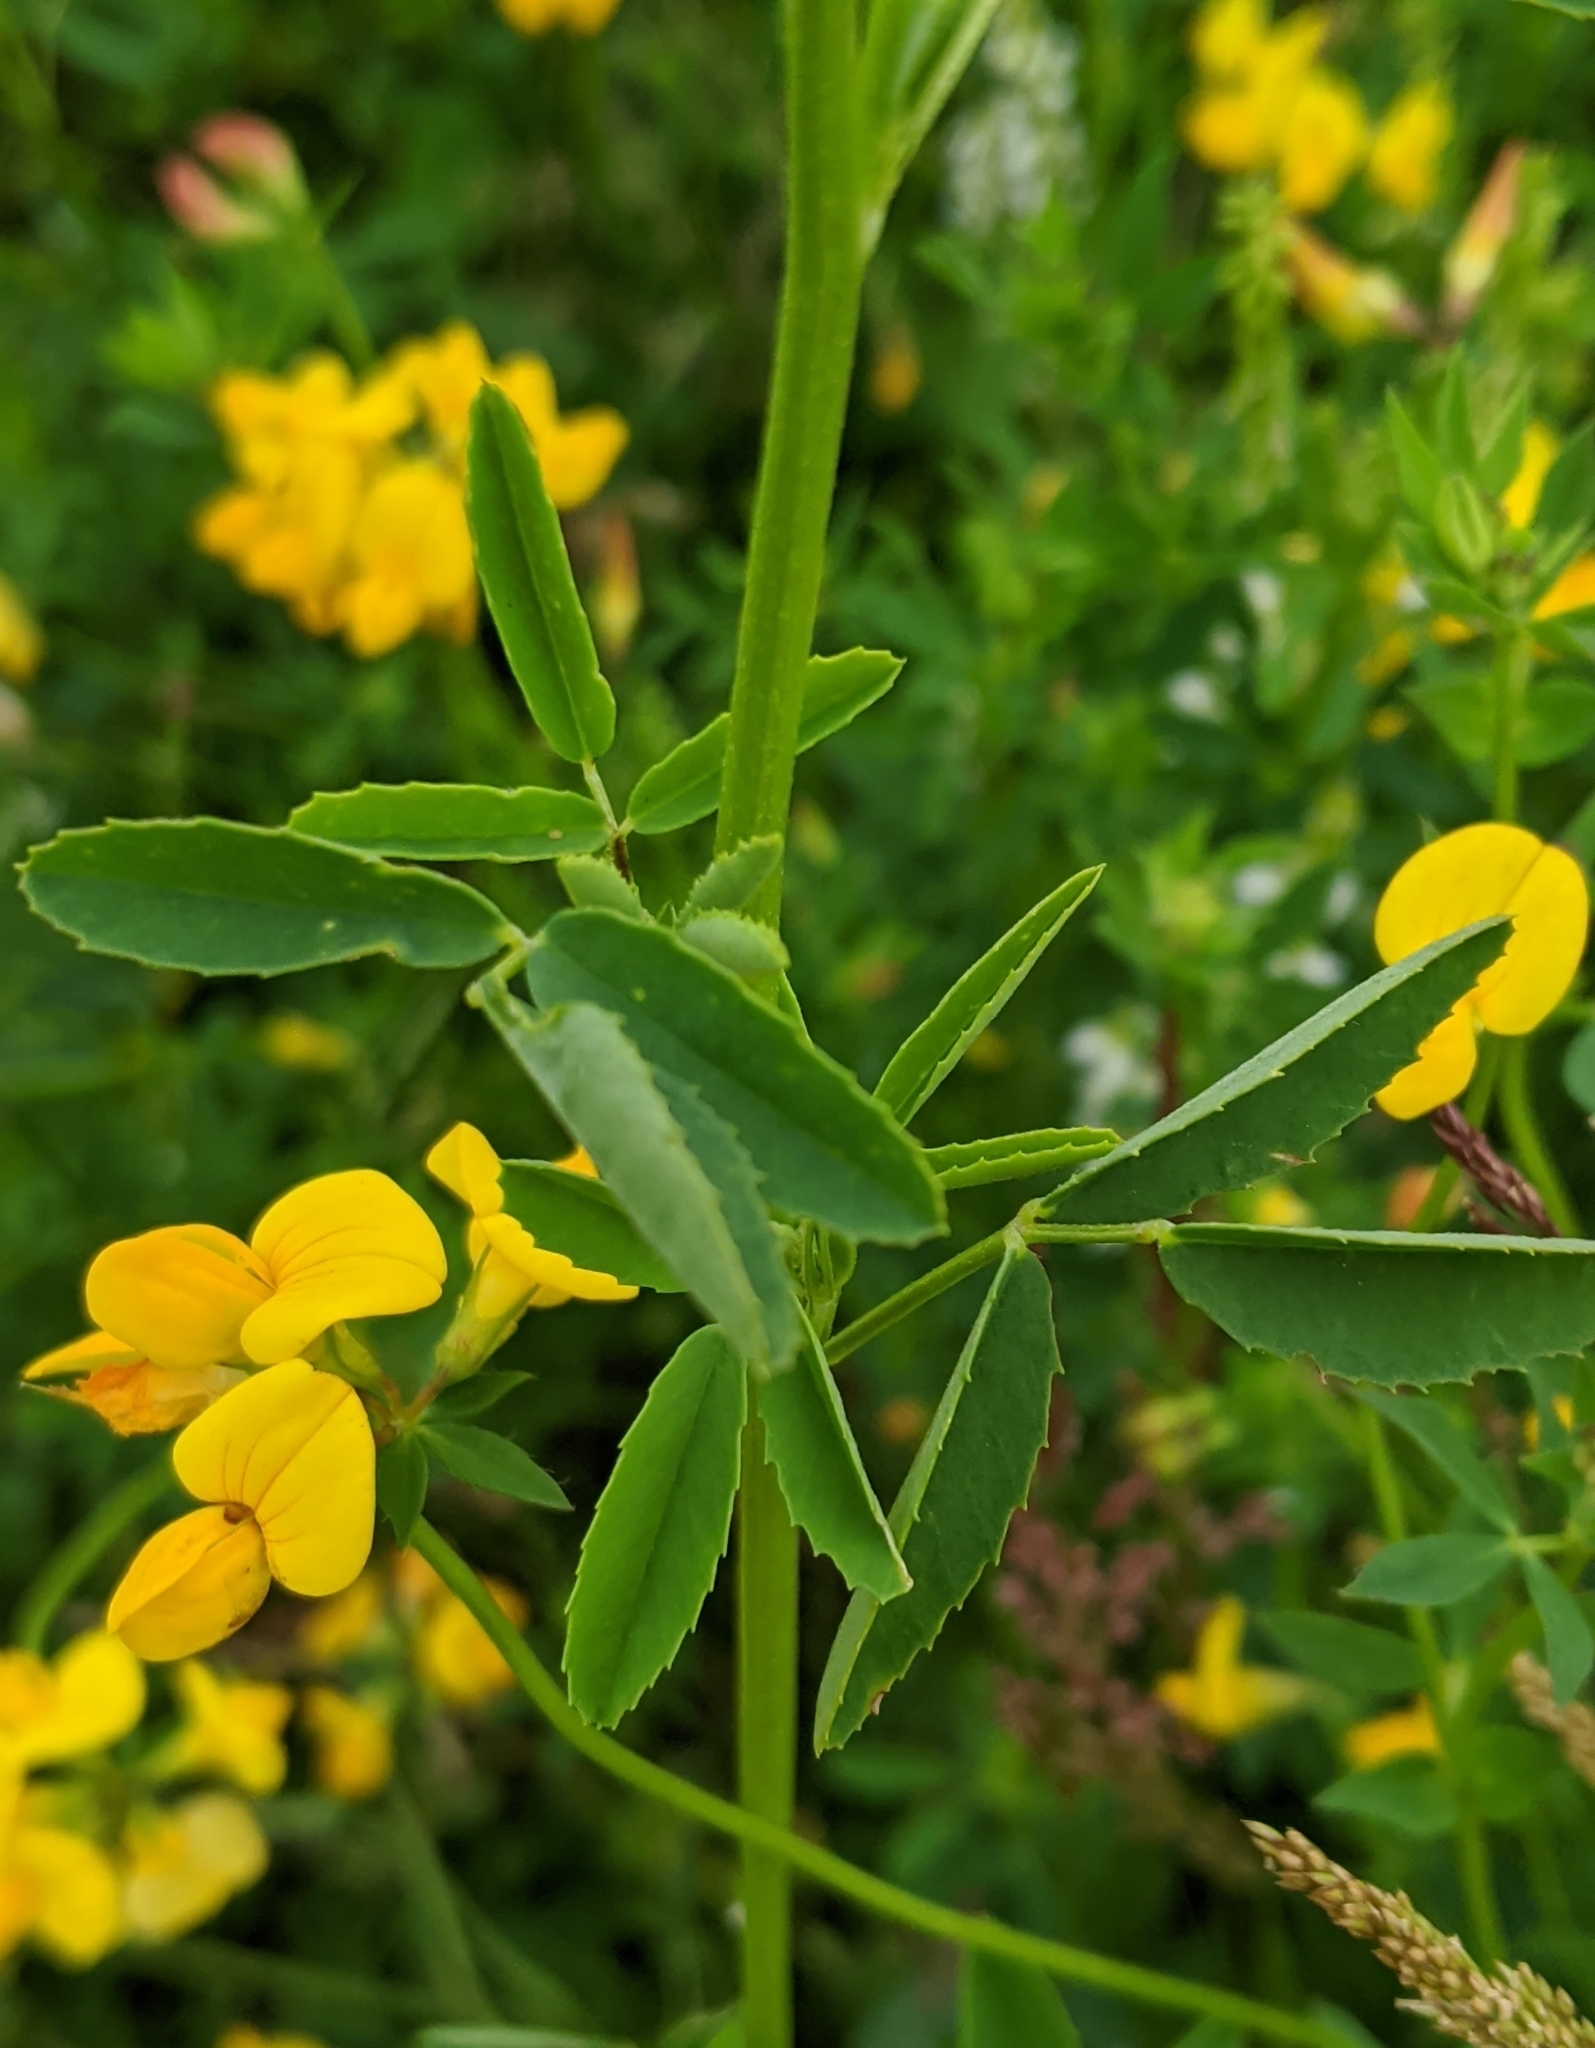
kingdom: Plantae
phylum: Tracheophyta
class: Magnoliopsida
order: Fabales
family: Fabaceae
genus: Lotus
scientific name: Lotus corniculatus
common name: Common bird's-foot-trefoil
